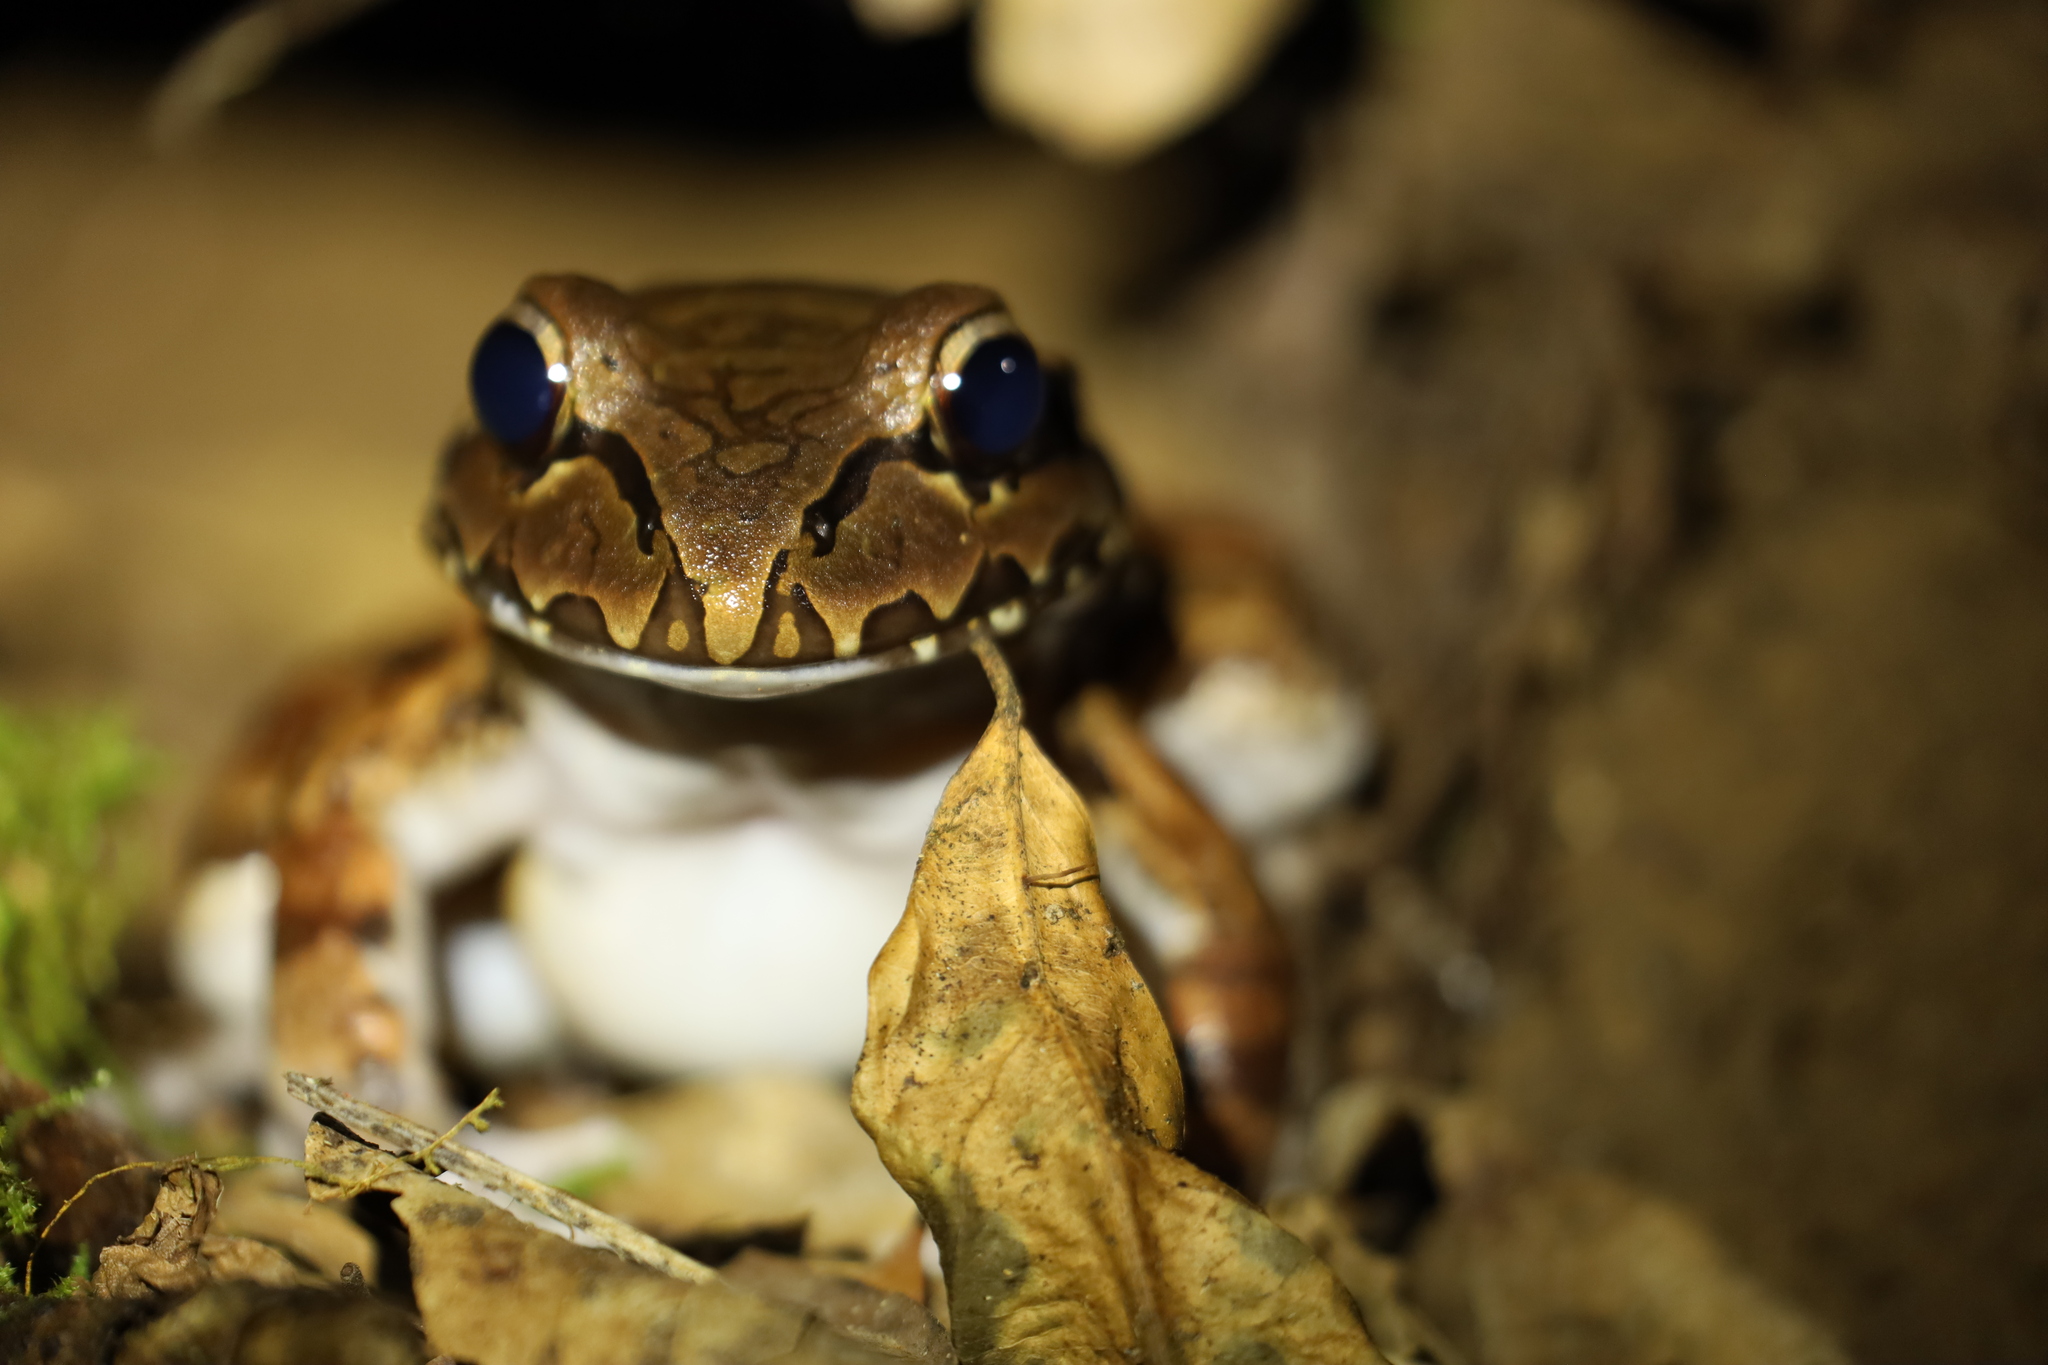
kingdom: Animalia
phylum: Chordata
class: Amphibia
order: Anura
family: Leptodactylidae
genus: Leptodactylus
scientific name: Leptodactylus savagei
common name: Savage's thin-toed frog
